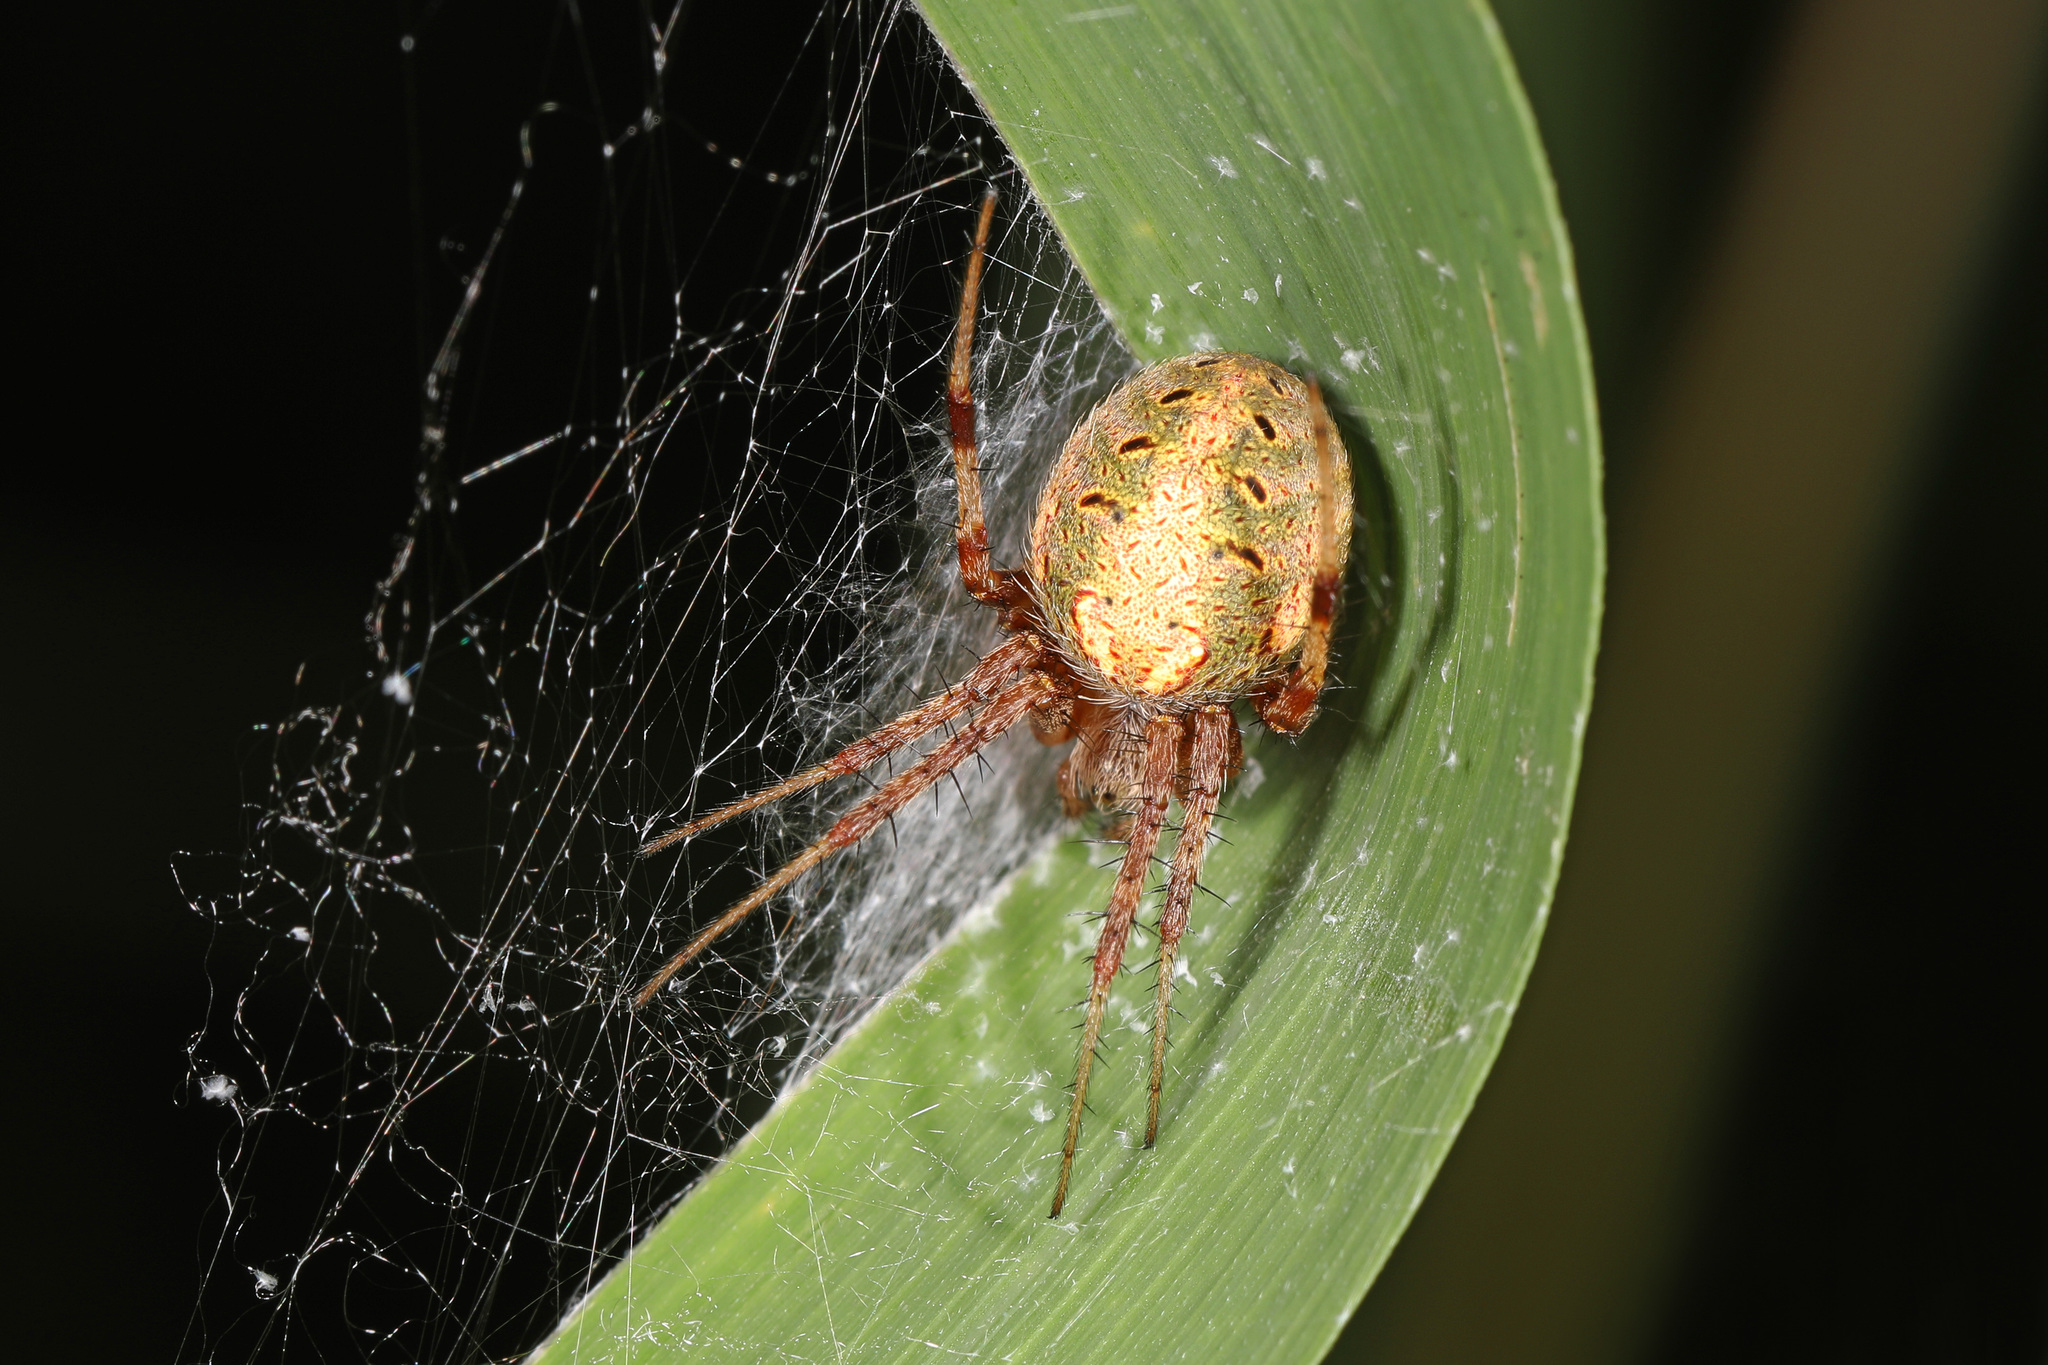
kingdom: Animalia
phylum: Arthropoda
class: Arachnida
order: Araneae
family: Araneidae
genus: Neoscona
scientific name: Neoscona arabesca
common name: Orb weavers
